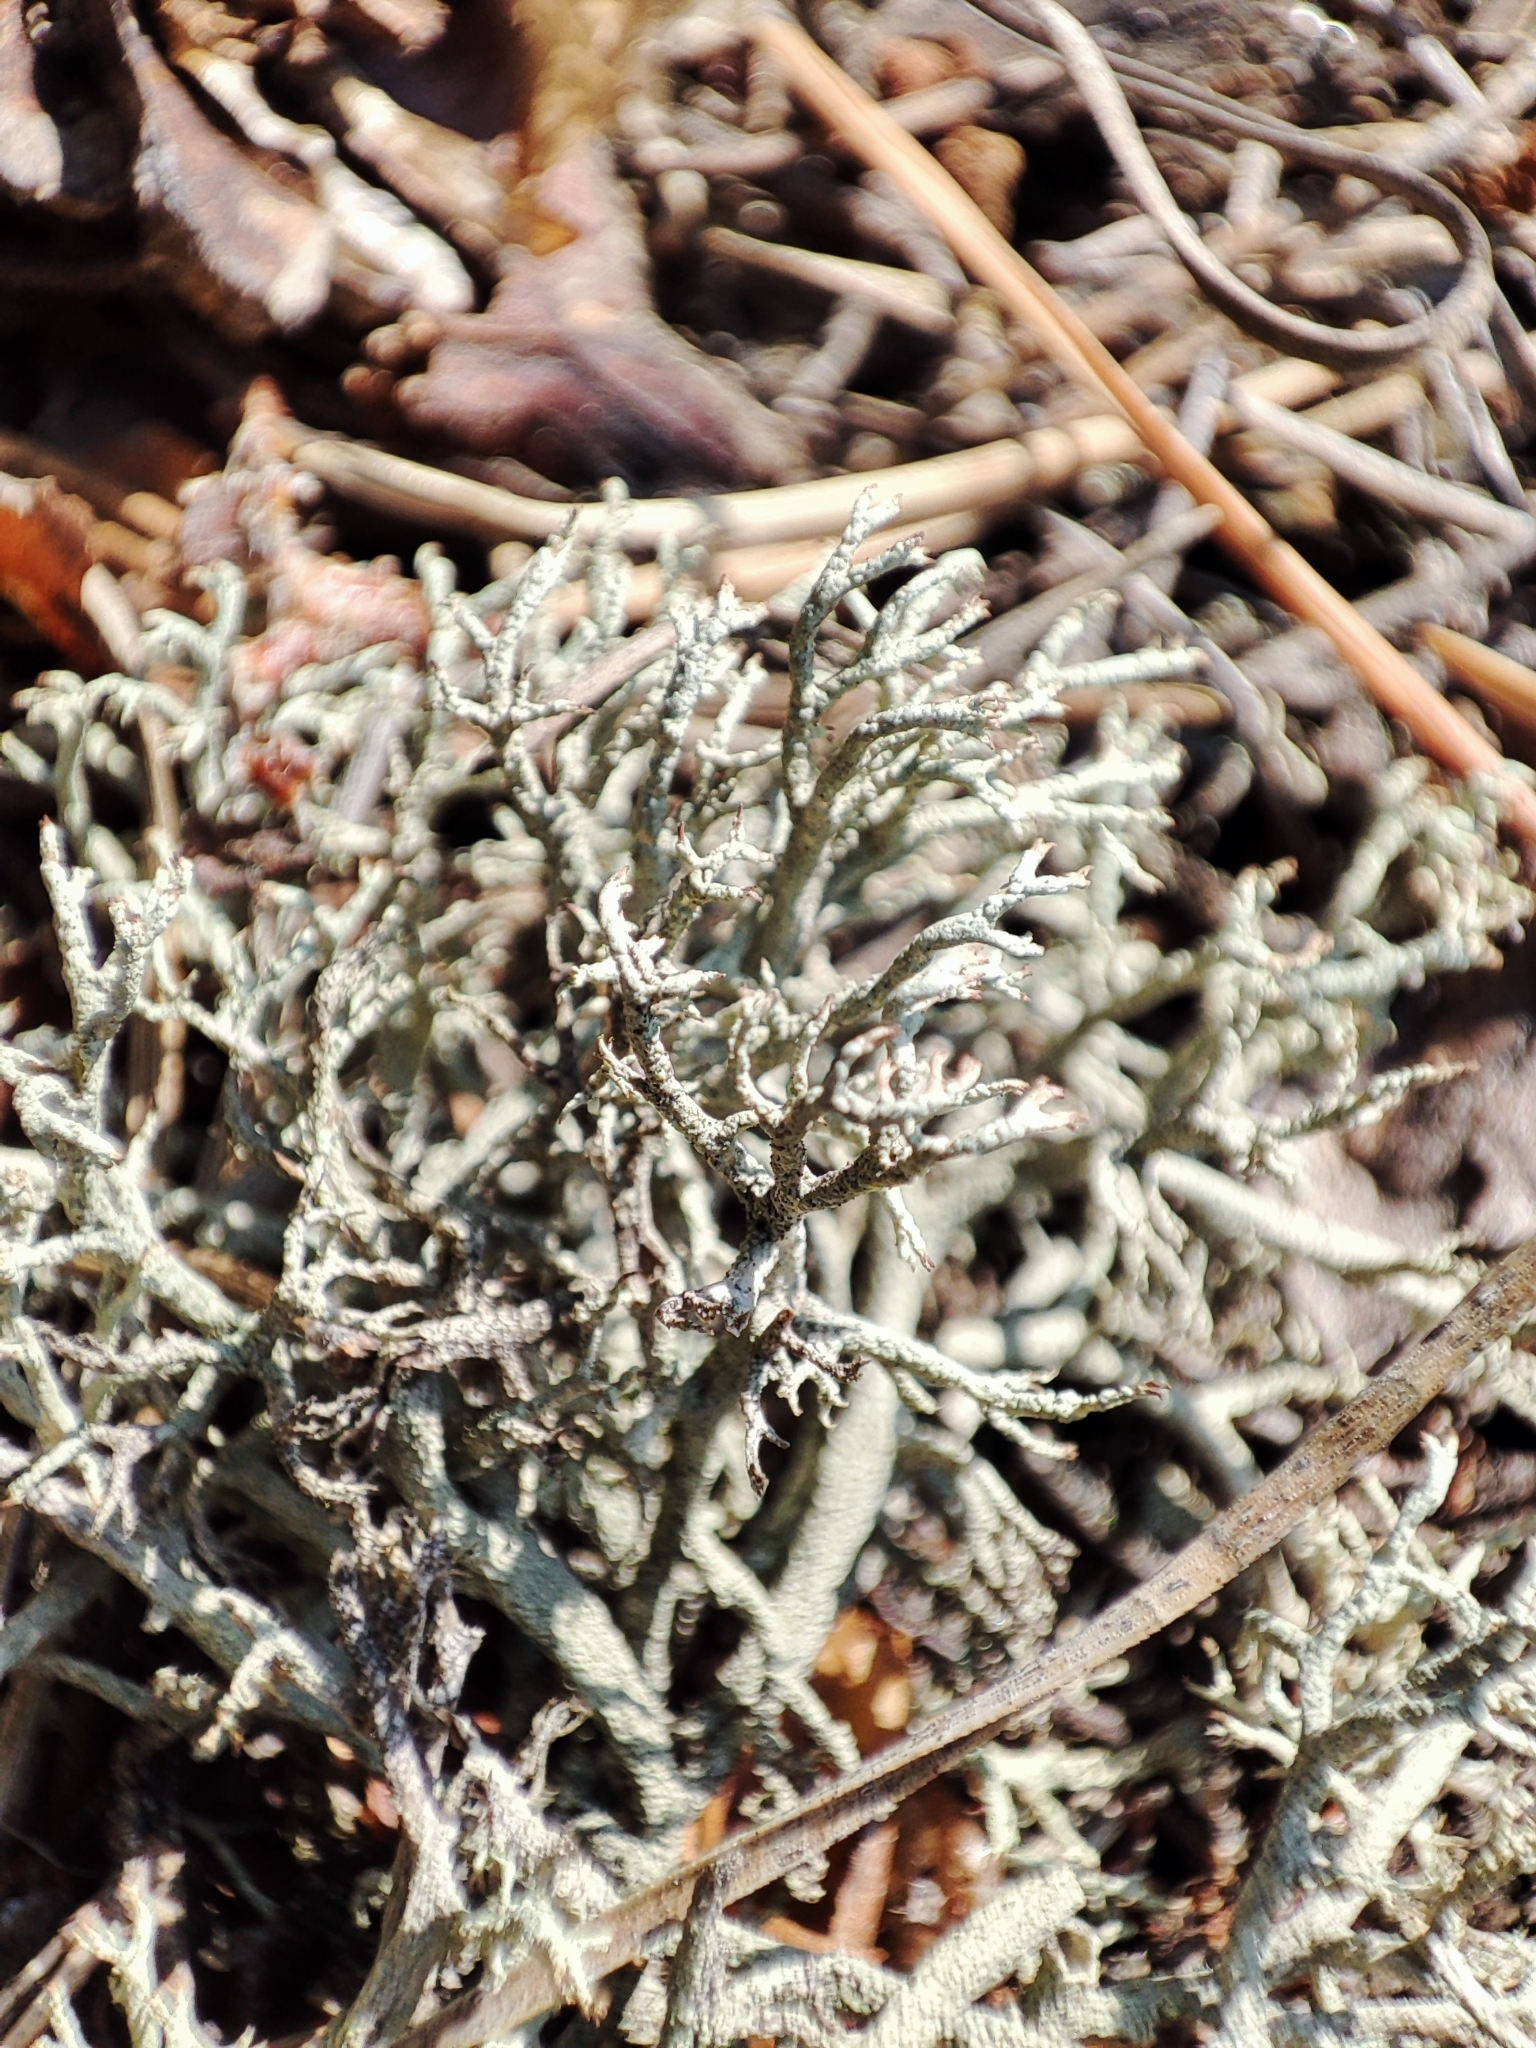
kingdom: Fungi
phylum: Ascomycota
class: Lecanoromycetes
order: Lecanorales
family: Cladoniaceae
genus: Cladonia
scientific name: Cladonia mitis
